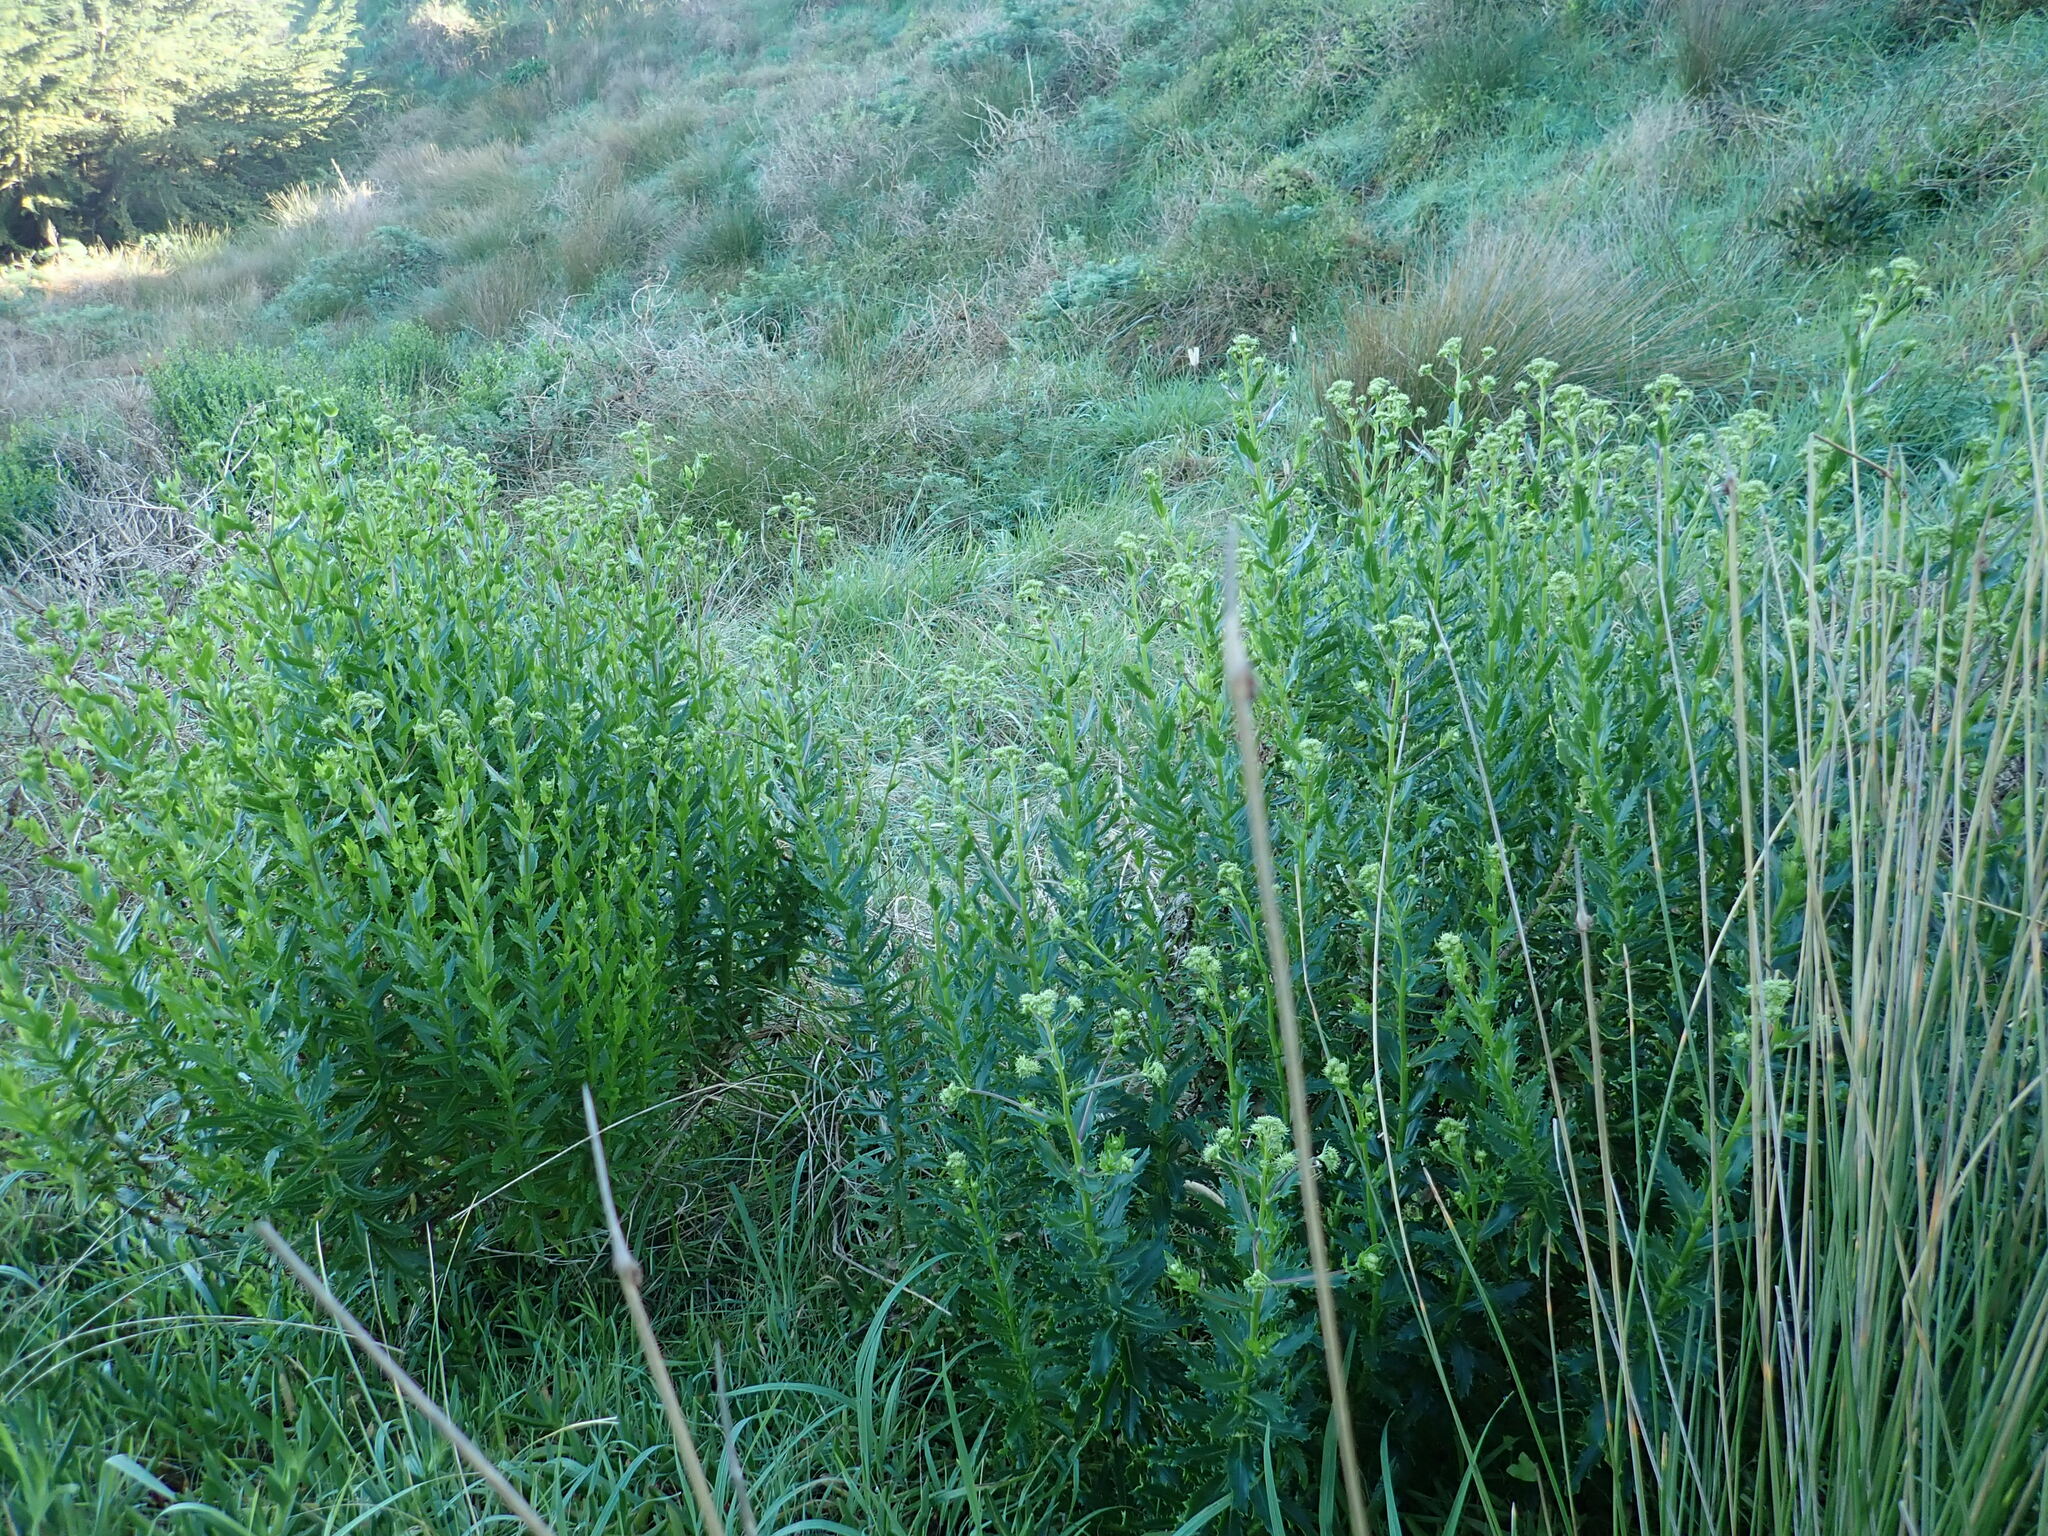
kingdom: Plantae
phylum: Tracheophyta
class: Magnoliopsida
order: Asterales
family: Asteraceae
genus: Senecio
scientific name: Senecio glastifolius
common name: Woad-leaved ragwort
